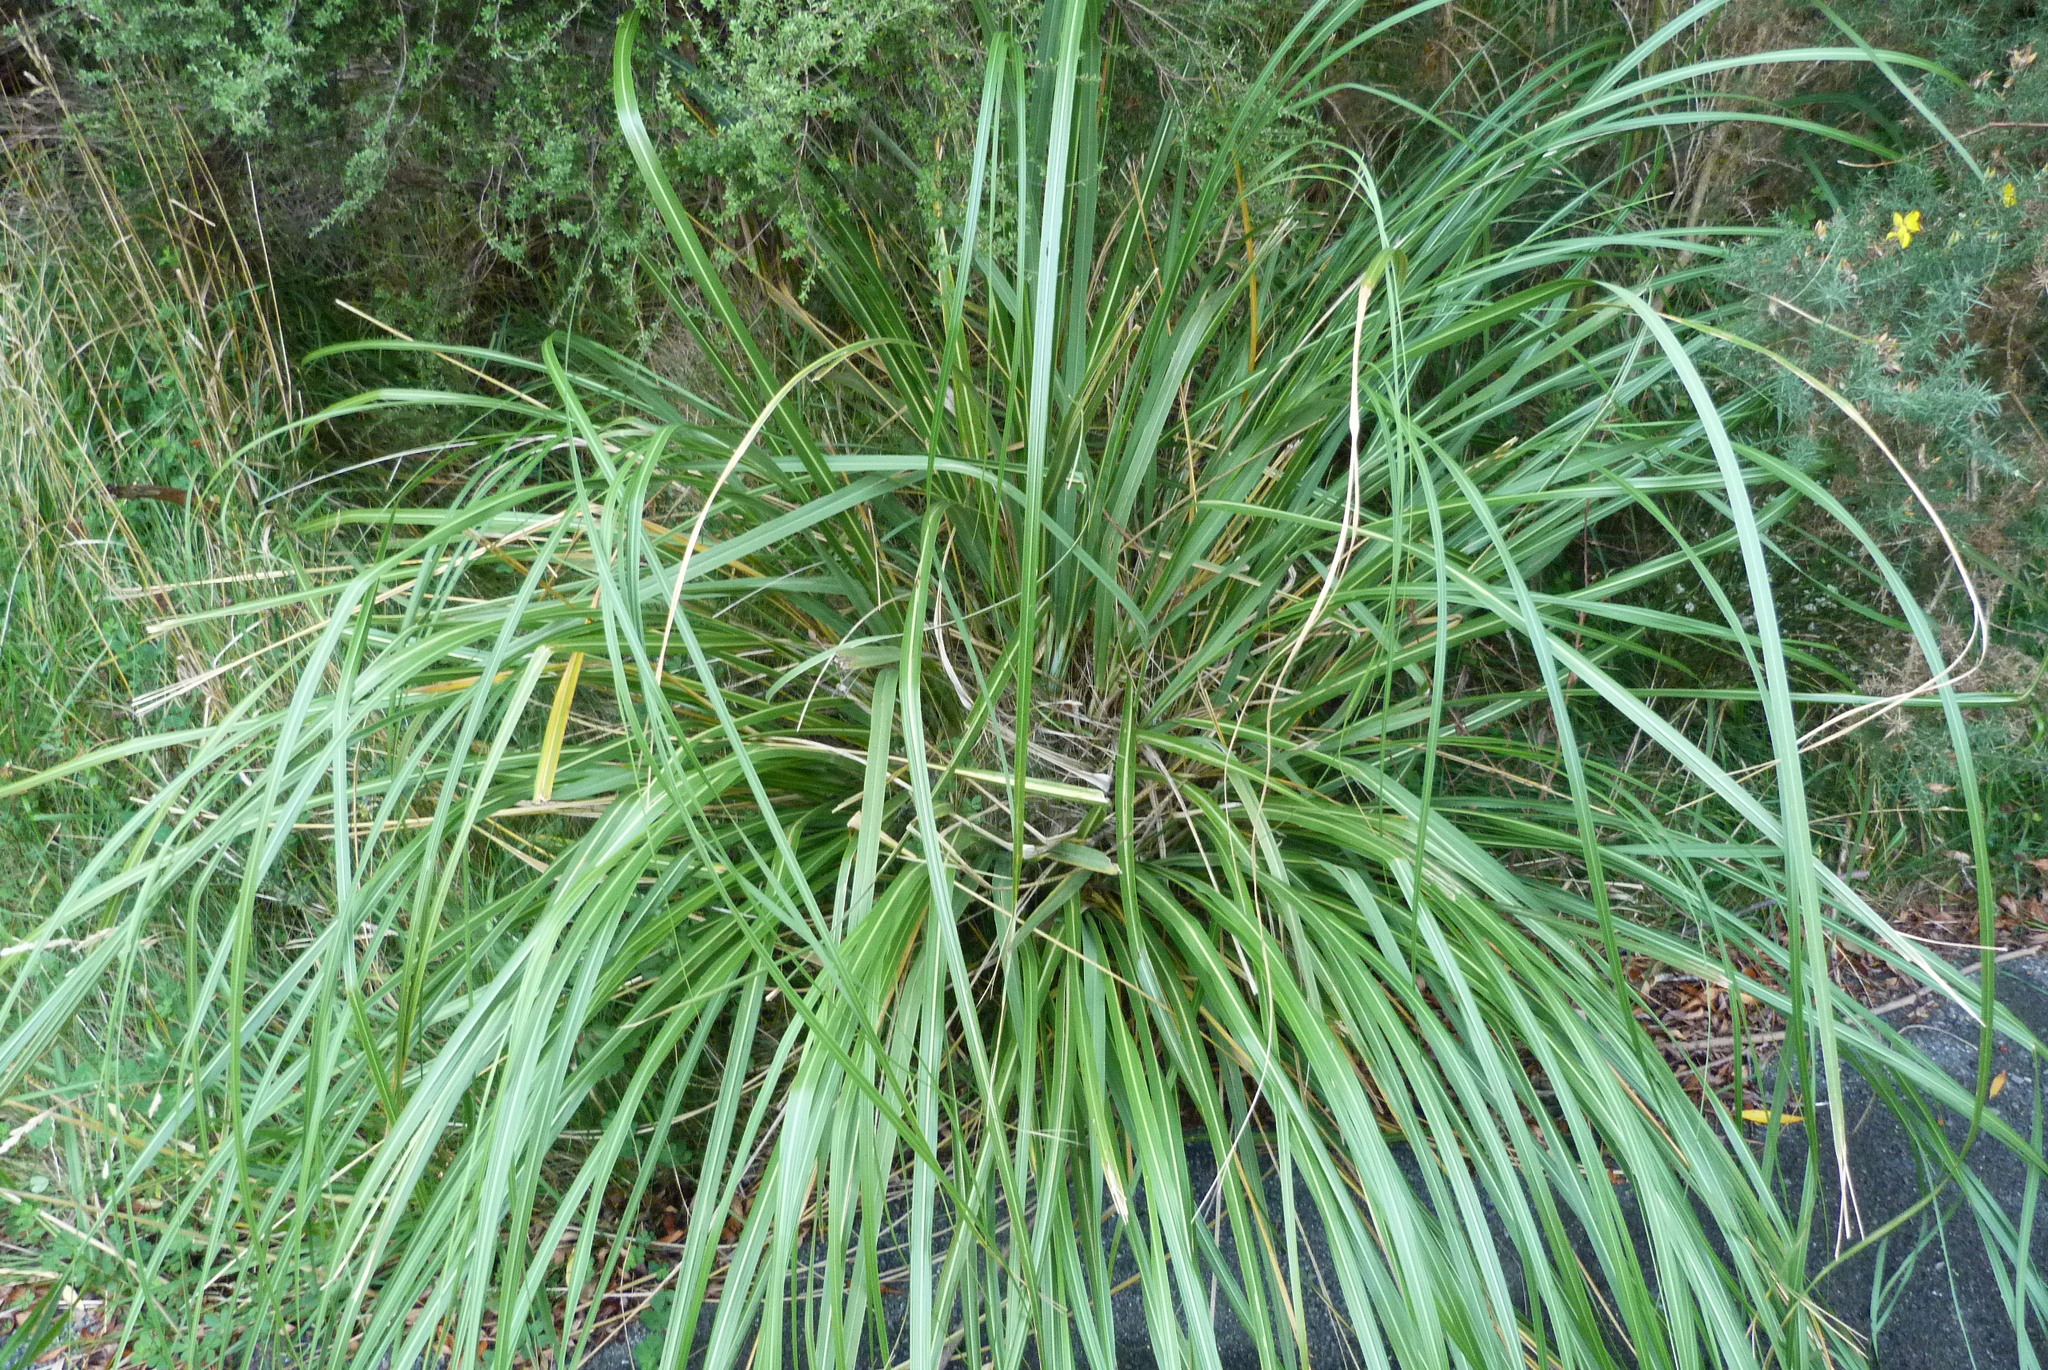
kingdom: Plantae
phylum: Tracheophyta
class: Liliopsida
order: Poales
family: Poaceae
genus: Chionochloa
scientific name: Chionochloa conspicua
